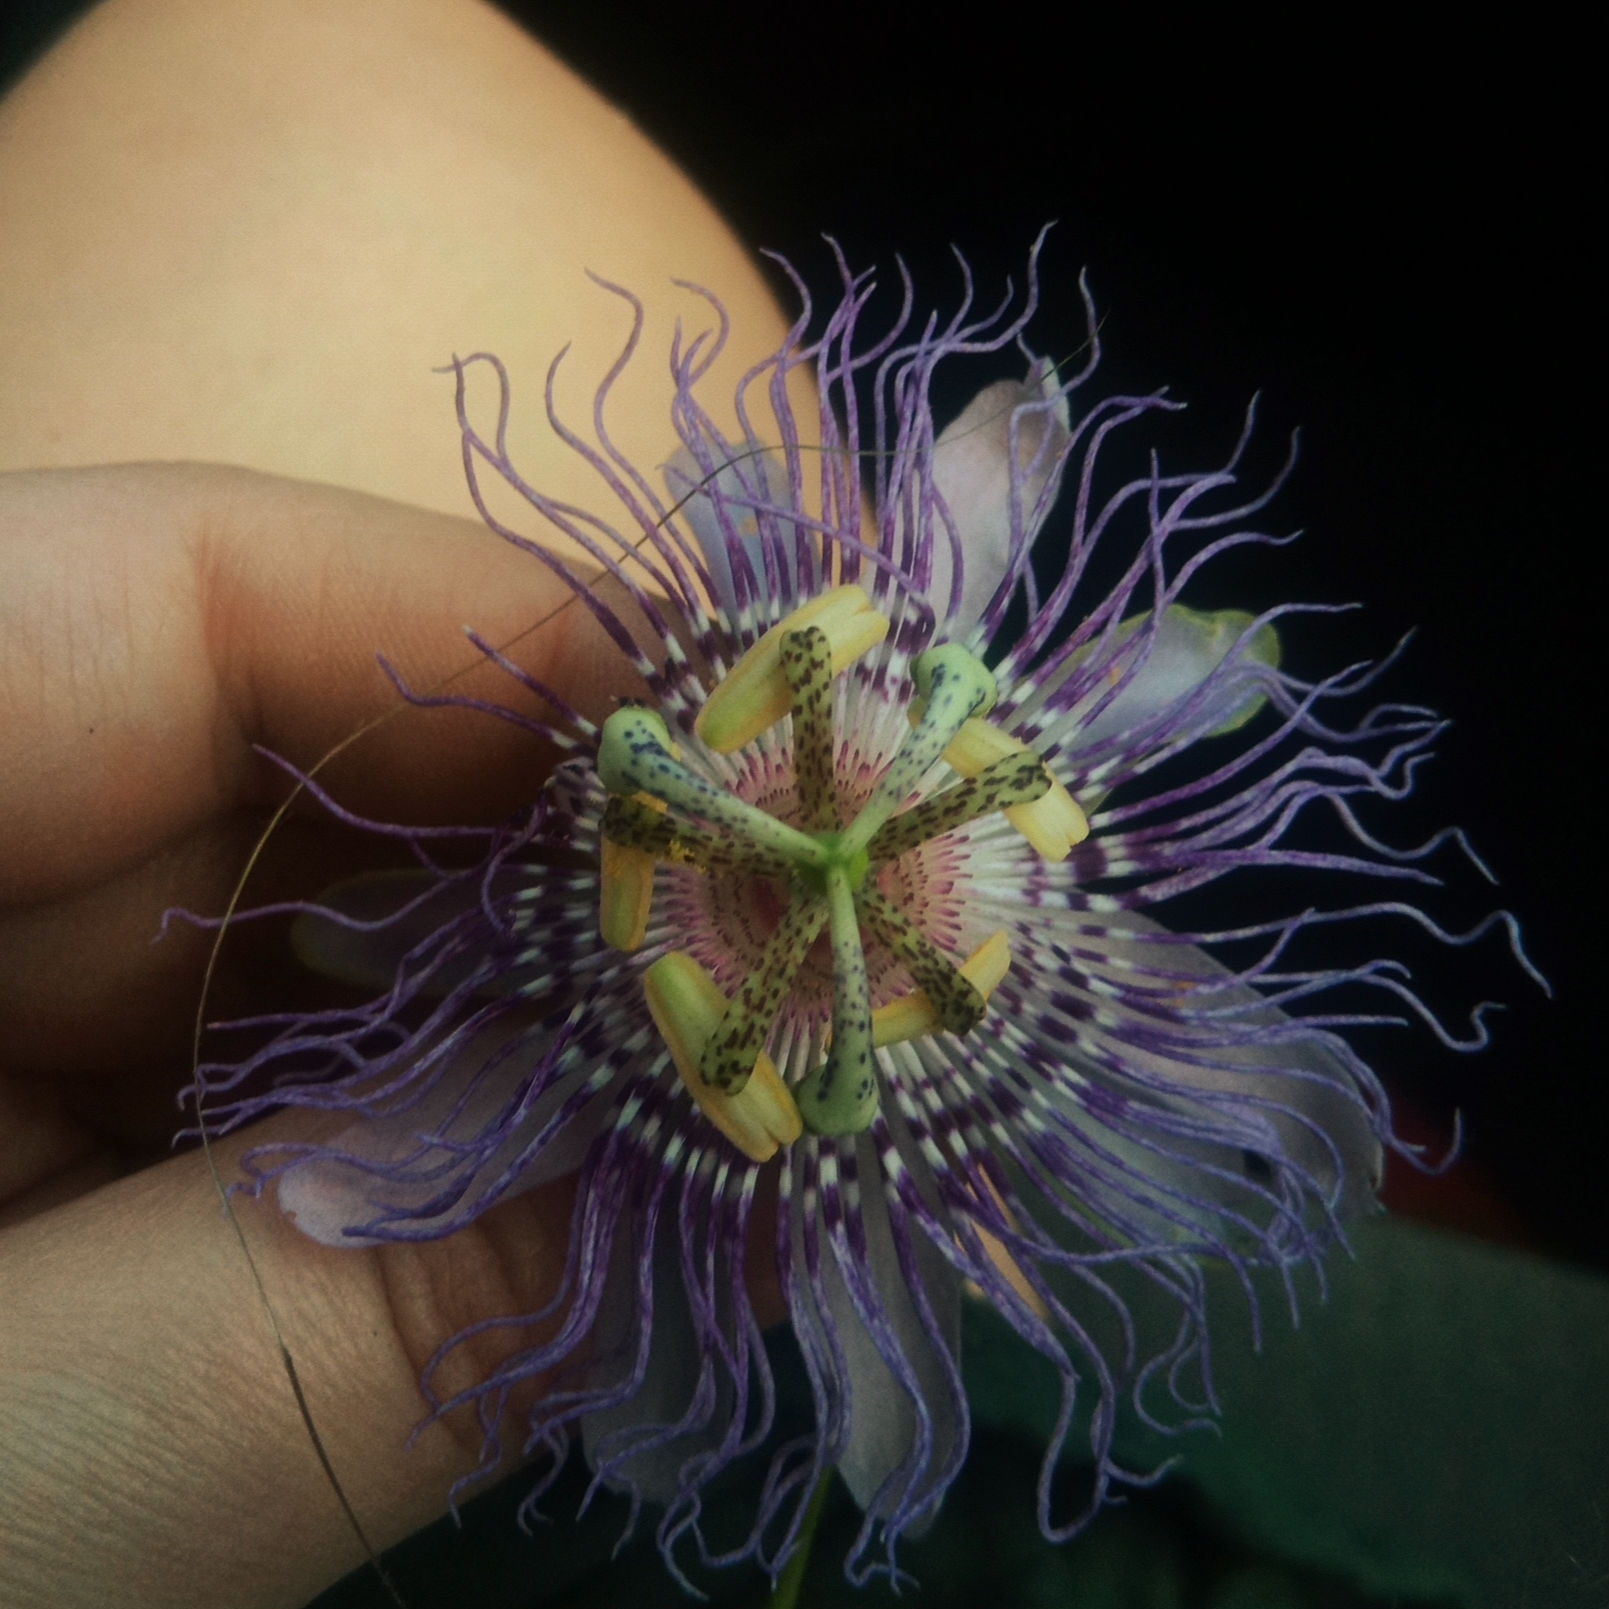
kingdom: Plantae
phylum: Tracheophyta
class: Magnoliopsida
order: Malpighiales
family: Passifloraceae
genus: Passiflora
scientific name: Passiflora incarnata
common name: Apricot-vine
